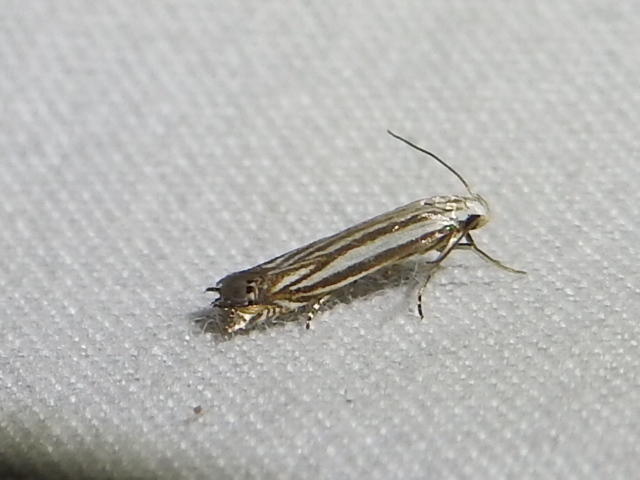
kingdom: Animalia
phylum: Arthropoda
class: Insecta
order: Lepidoptera
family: Gelechiidae
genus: Polyhymno
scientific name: Polyhymno luteostrigella
